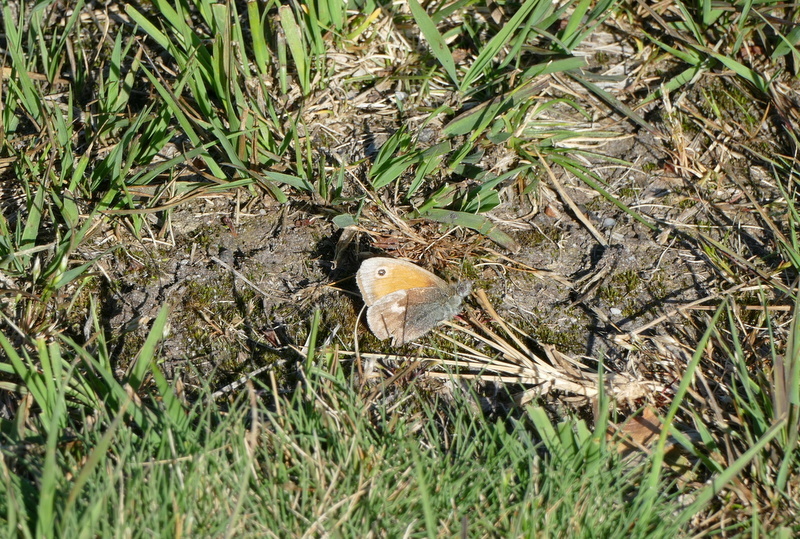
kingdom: Animalia
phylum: Arthropoda
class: Insecta
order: Lepidoptera
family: Nymphalidae
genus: Coenonympha
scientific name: Coenonympha pamphilus
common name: Small heath
